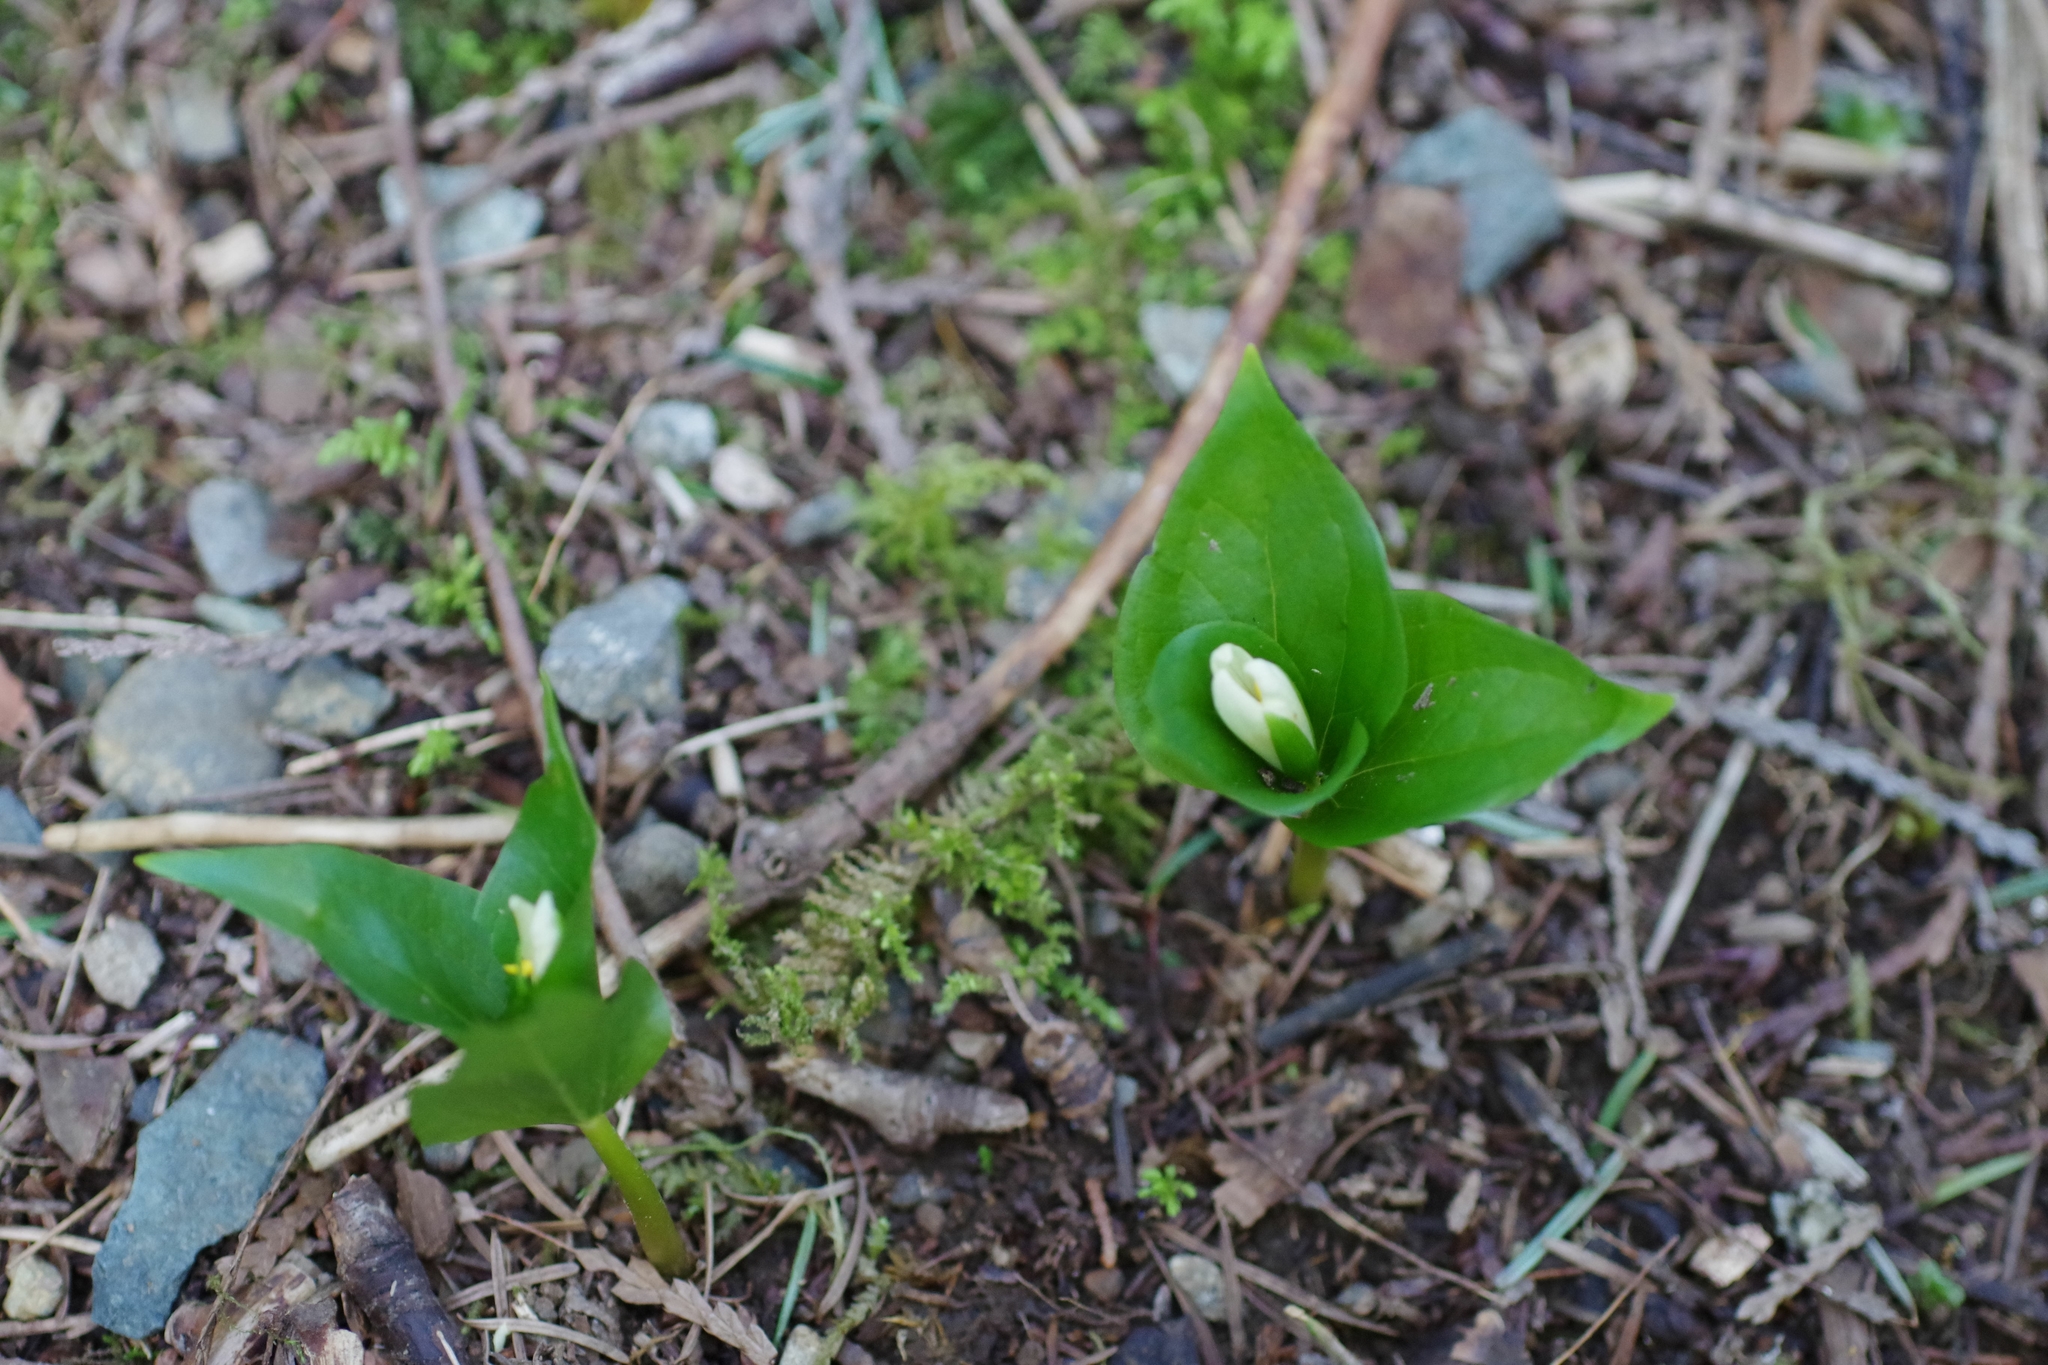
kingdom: Plantae
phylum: Tracheophyta
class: Liliopsida
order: Liliales
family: Melanthiaceae
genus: Trillium
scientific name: Trillium ovatum
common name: Pacific trillium
